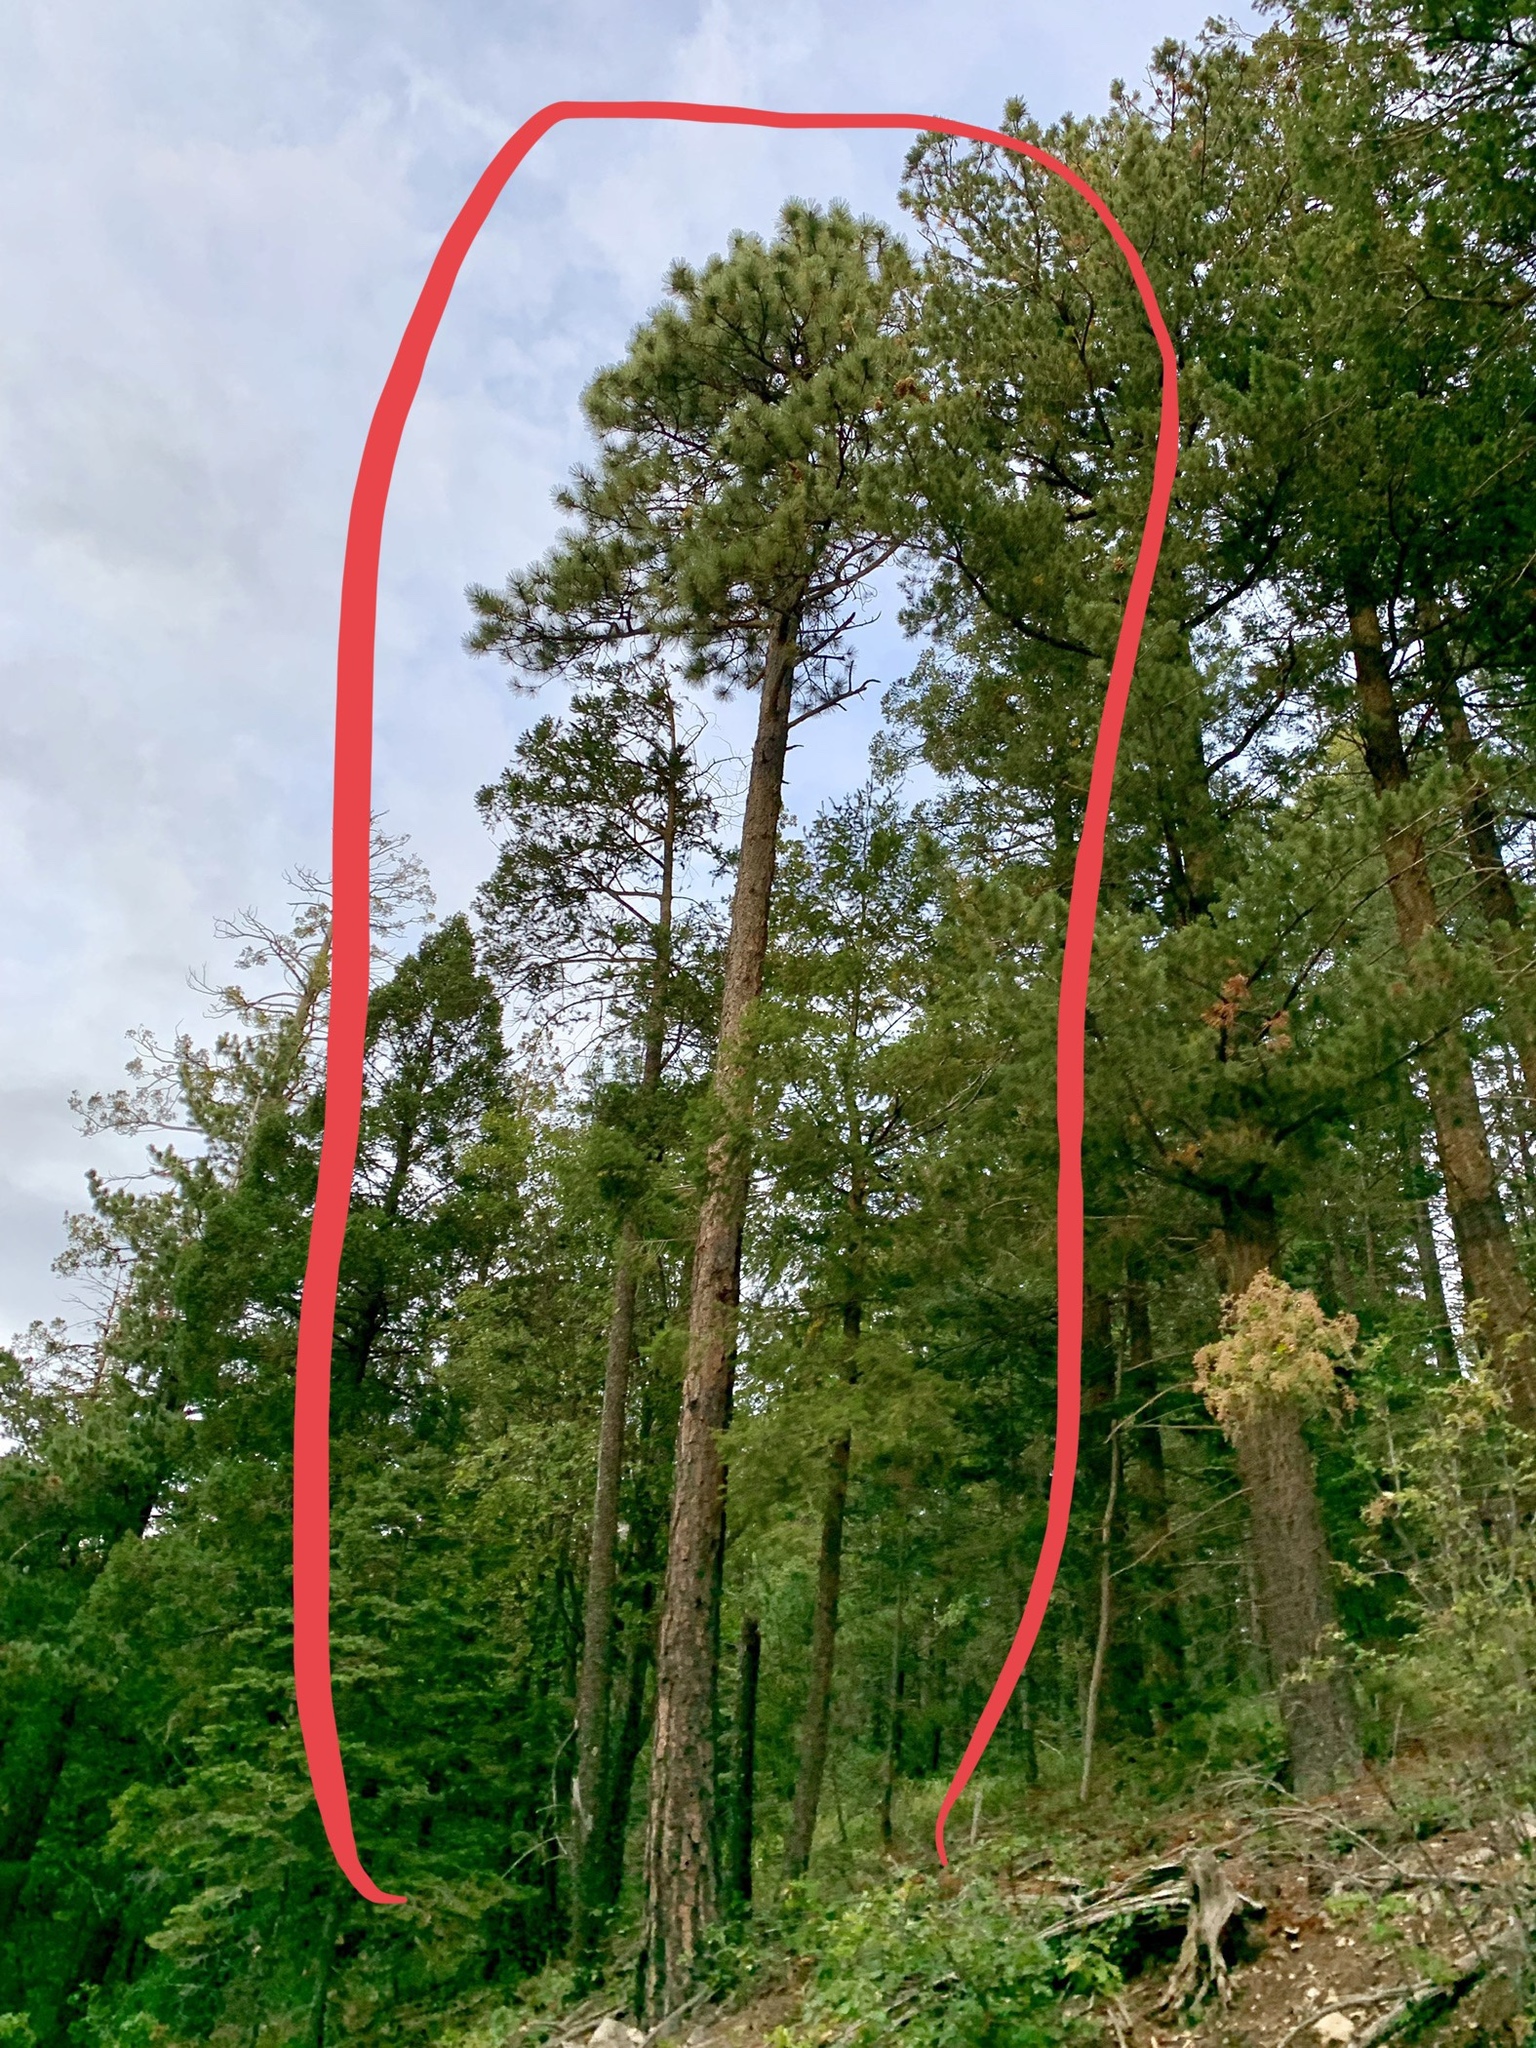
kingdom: Plantae
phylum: Tracheophyta
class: Pinopsida
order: Pinales
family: Pinaceae
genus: Pinus
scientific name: Pinus ponderosa
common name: Western yellow-pine
